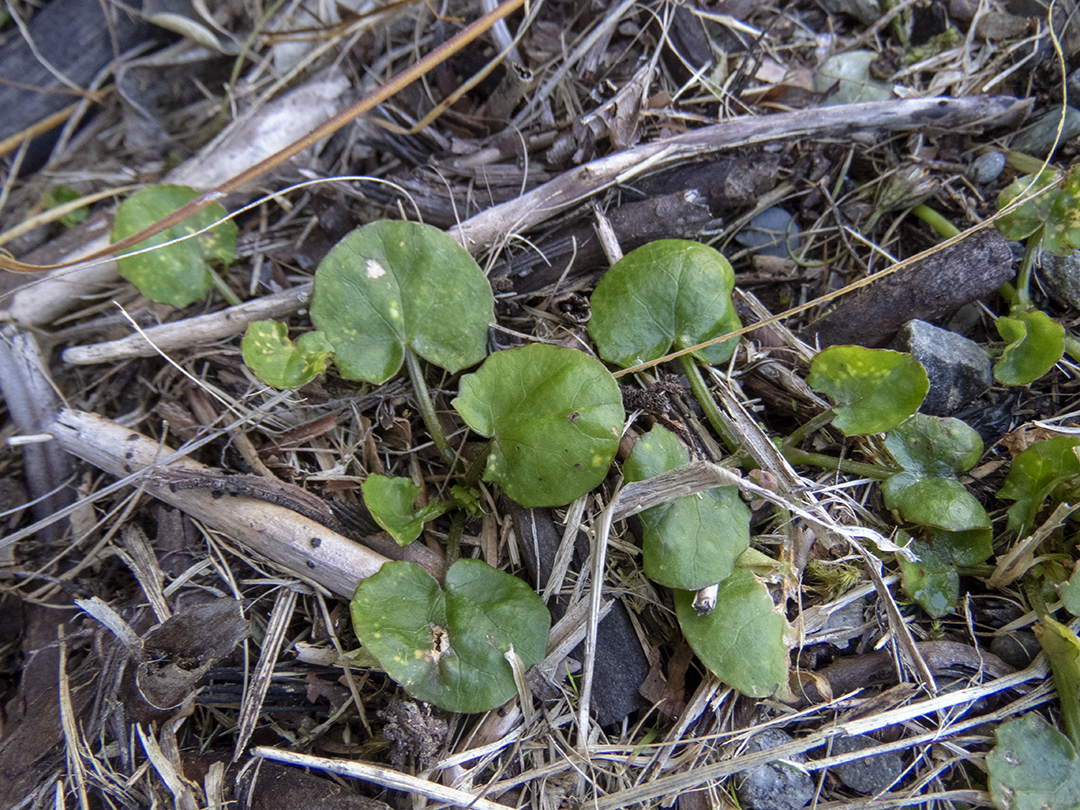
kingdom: Plantae
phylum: Tracheophyta
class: Magnoliopsida
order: Apiales
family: Apiaceae
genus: Centella
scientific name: Centella uniflora
